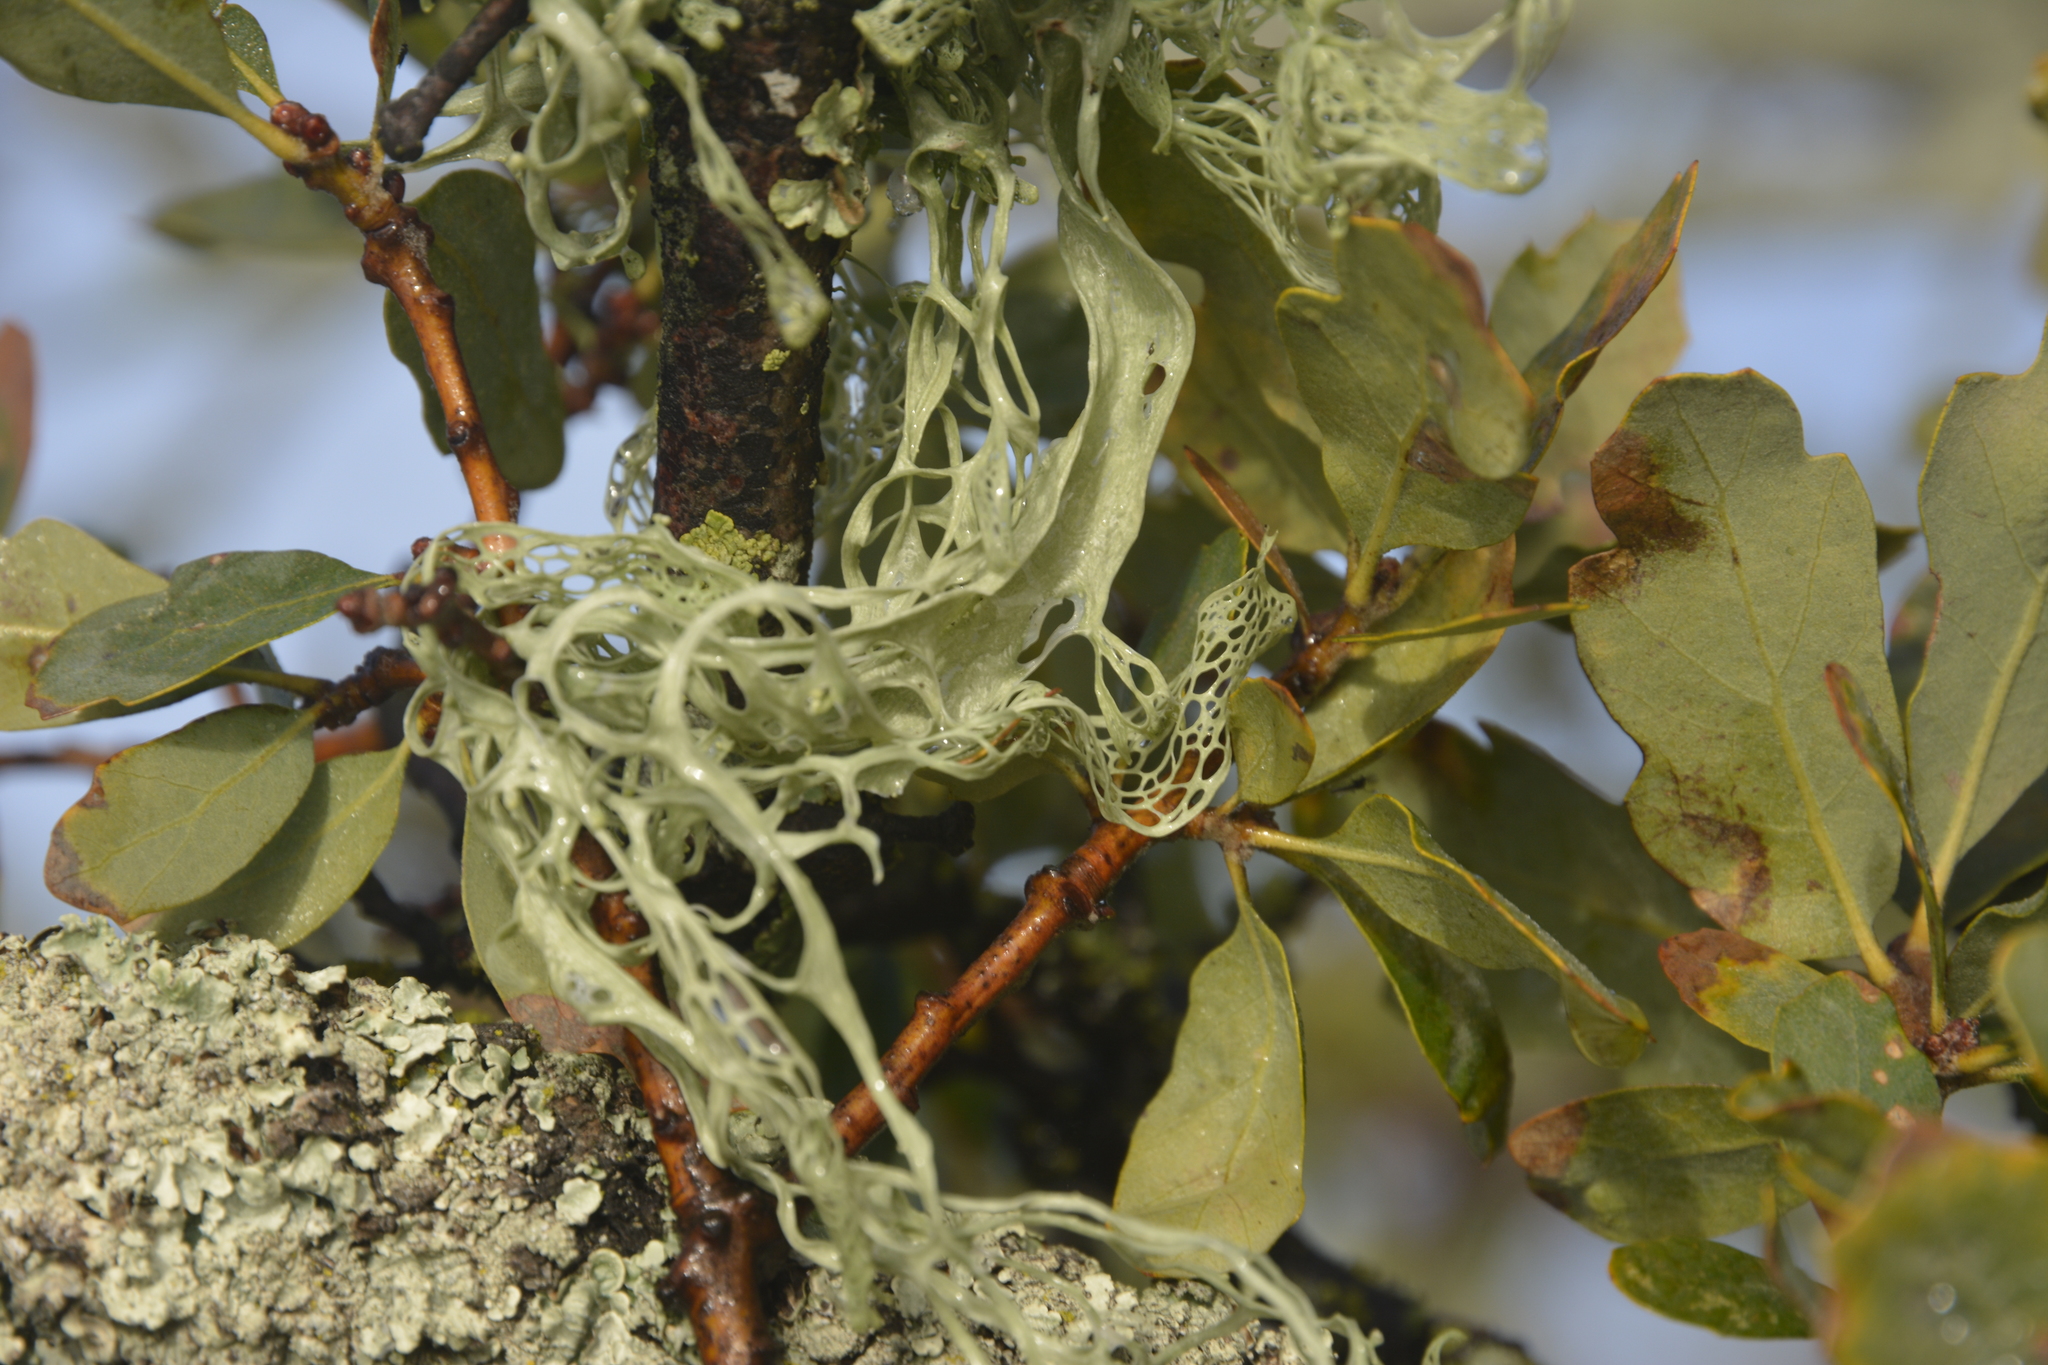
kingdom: Fungi
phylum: Ascomycota
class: Lecanoromycetes
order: Lecanorales
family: Ramalinaceae
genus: Ramalina
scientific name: Ramalina menziesii
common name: Lace lichen
